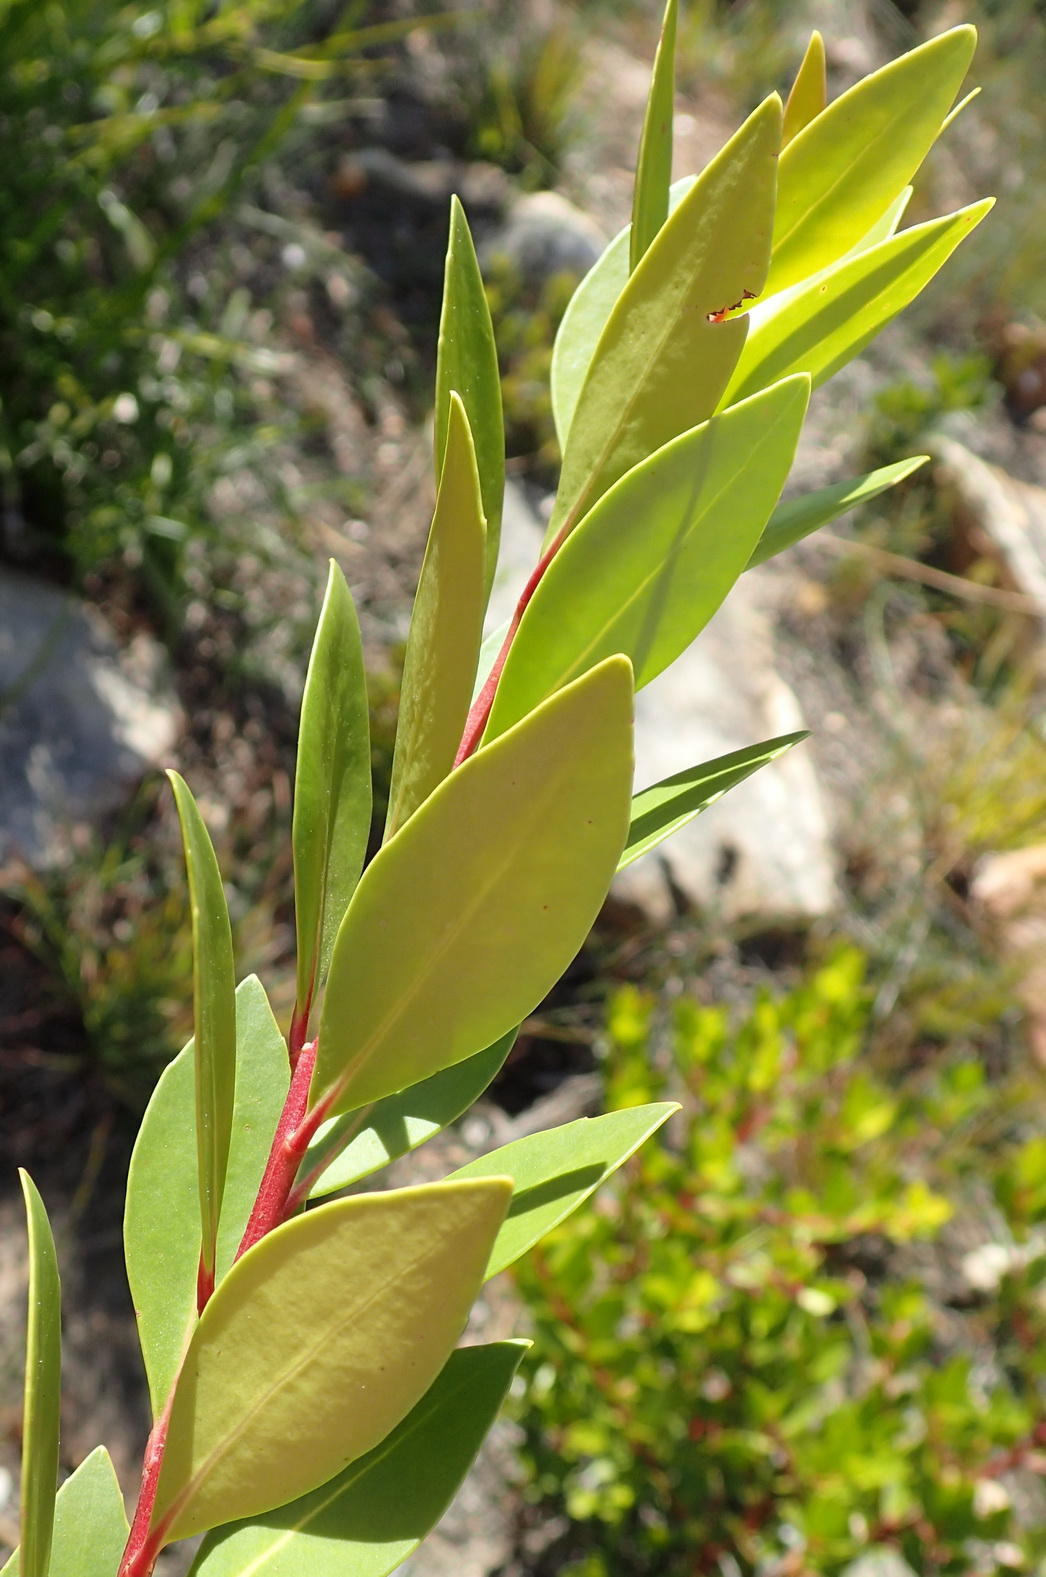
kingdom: Plantae
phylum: Tracheophyta
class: Magnoliopsida
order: Celastrales
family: Celastraceae
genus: Gymnosporia
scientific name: Gymnosporia laurina
